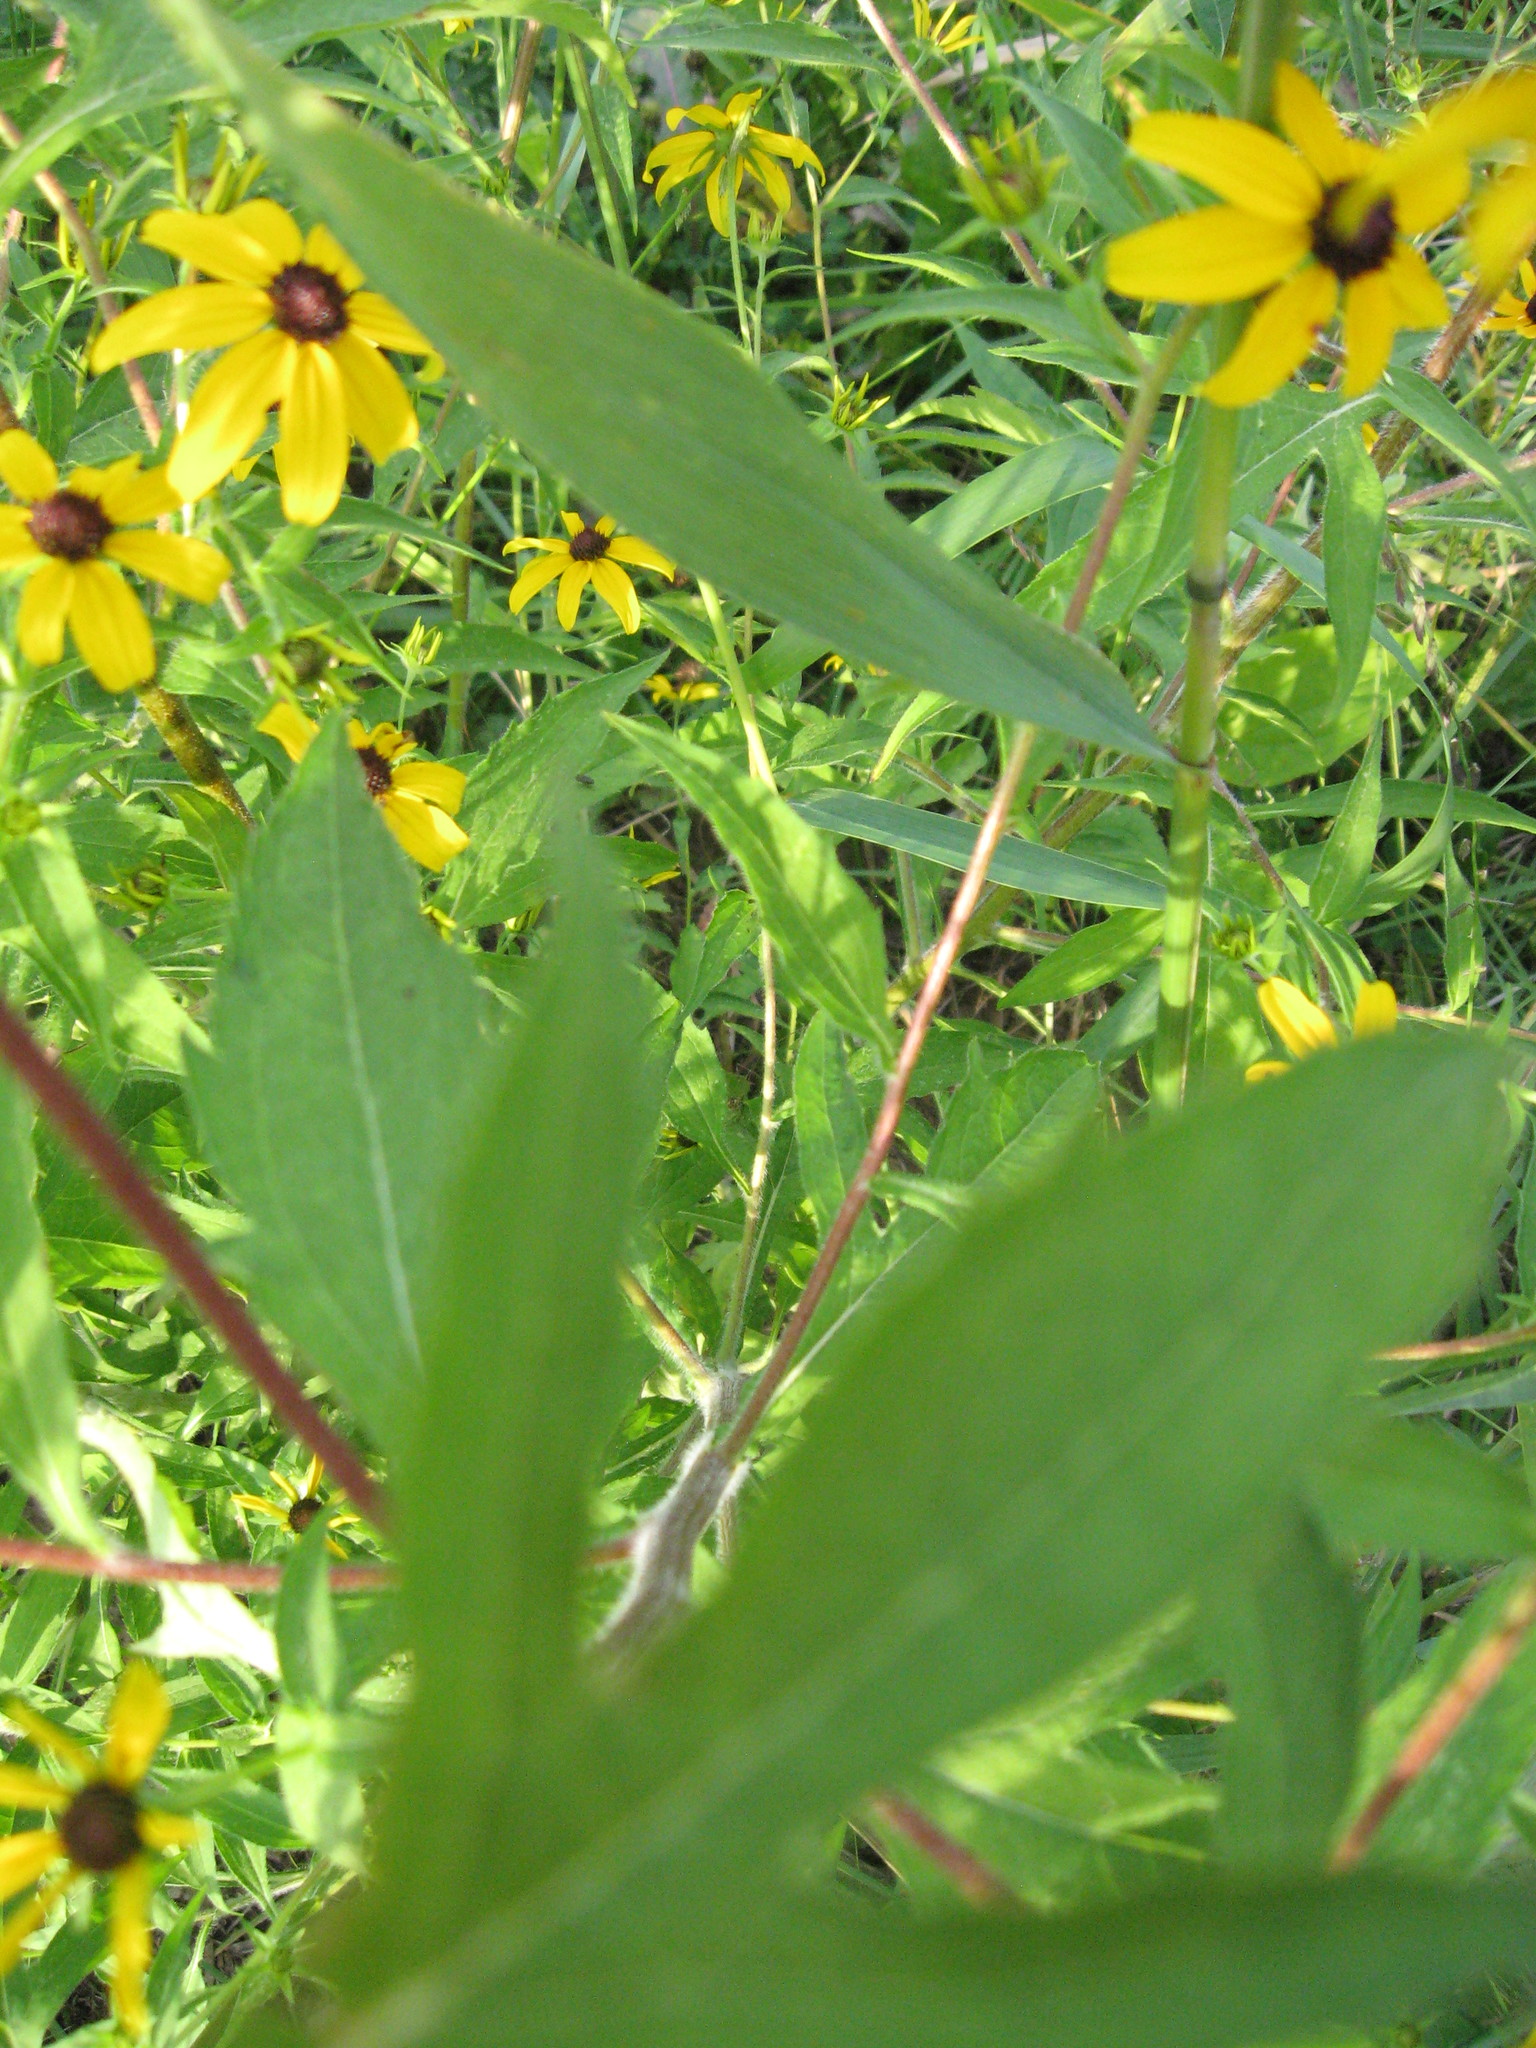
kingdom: Plantae
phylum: Tracheophyta
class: Magnoliopsida
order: Asterales
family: Asteraceae
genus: Rudbeckia
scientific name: Rudbeckia triloba
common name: Thin-leaved coneflower
